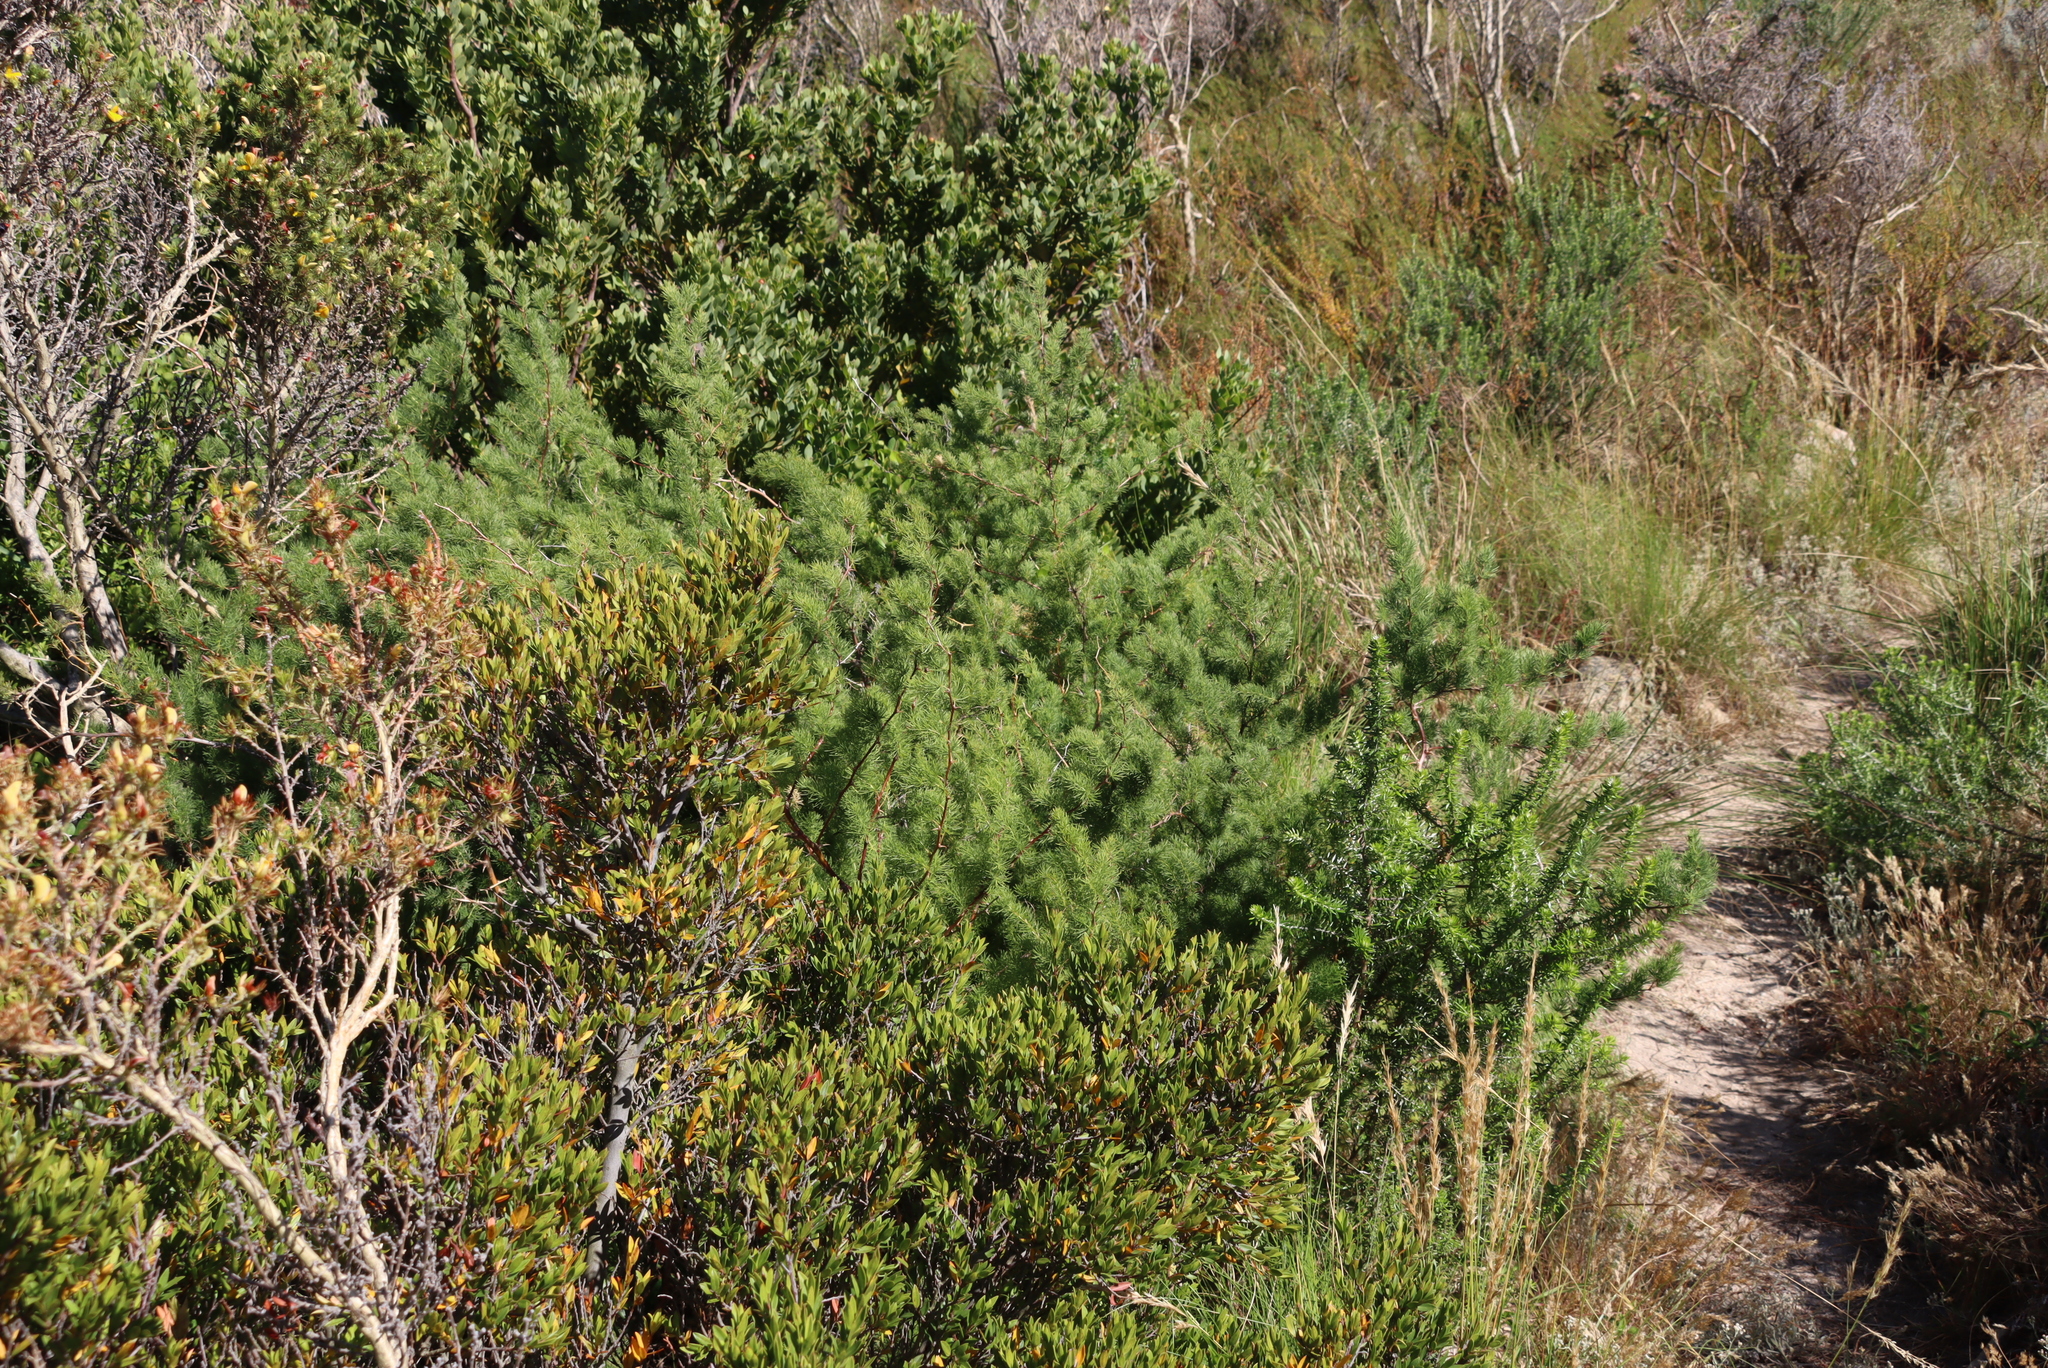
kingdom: Plantae
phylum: Tracheophyta
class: Liliopsida
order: Asparagales
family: Asparagaceae
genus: Asparagus
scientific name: Asparagus rubicundus
